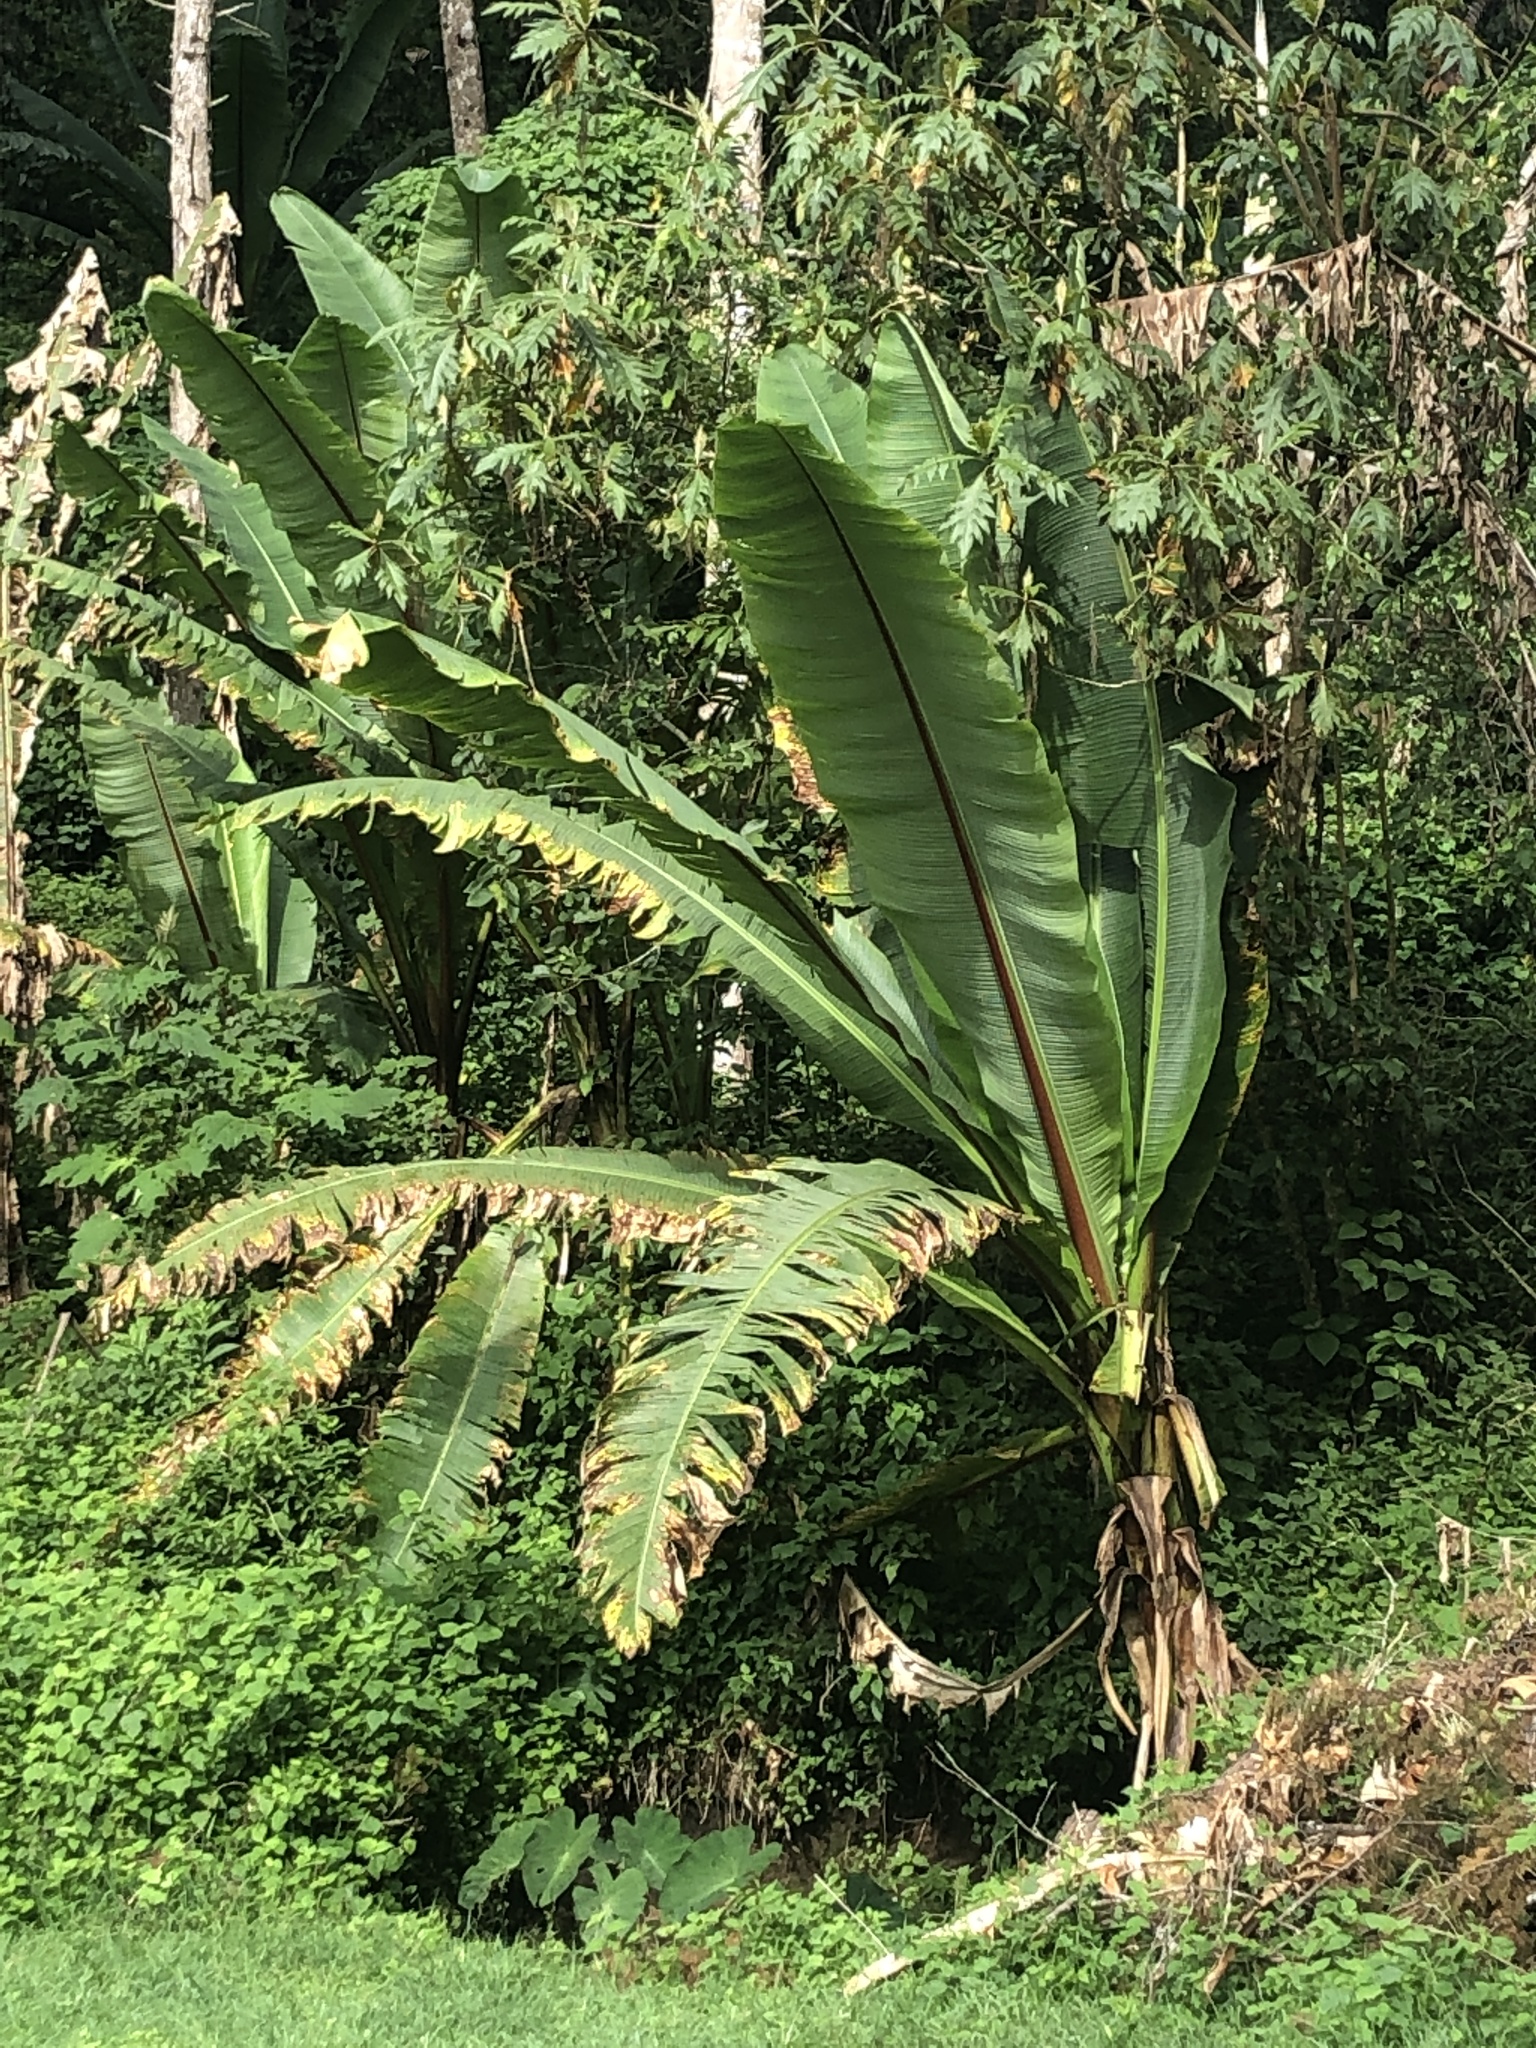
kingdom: Plantae
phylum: Tracheophyta
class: Liliopsida
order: Zingiberales
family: Musaceae
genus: Ensete
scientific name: Ensete ventricosum
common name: Abyssinian banana
